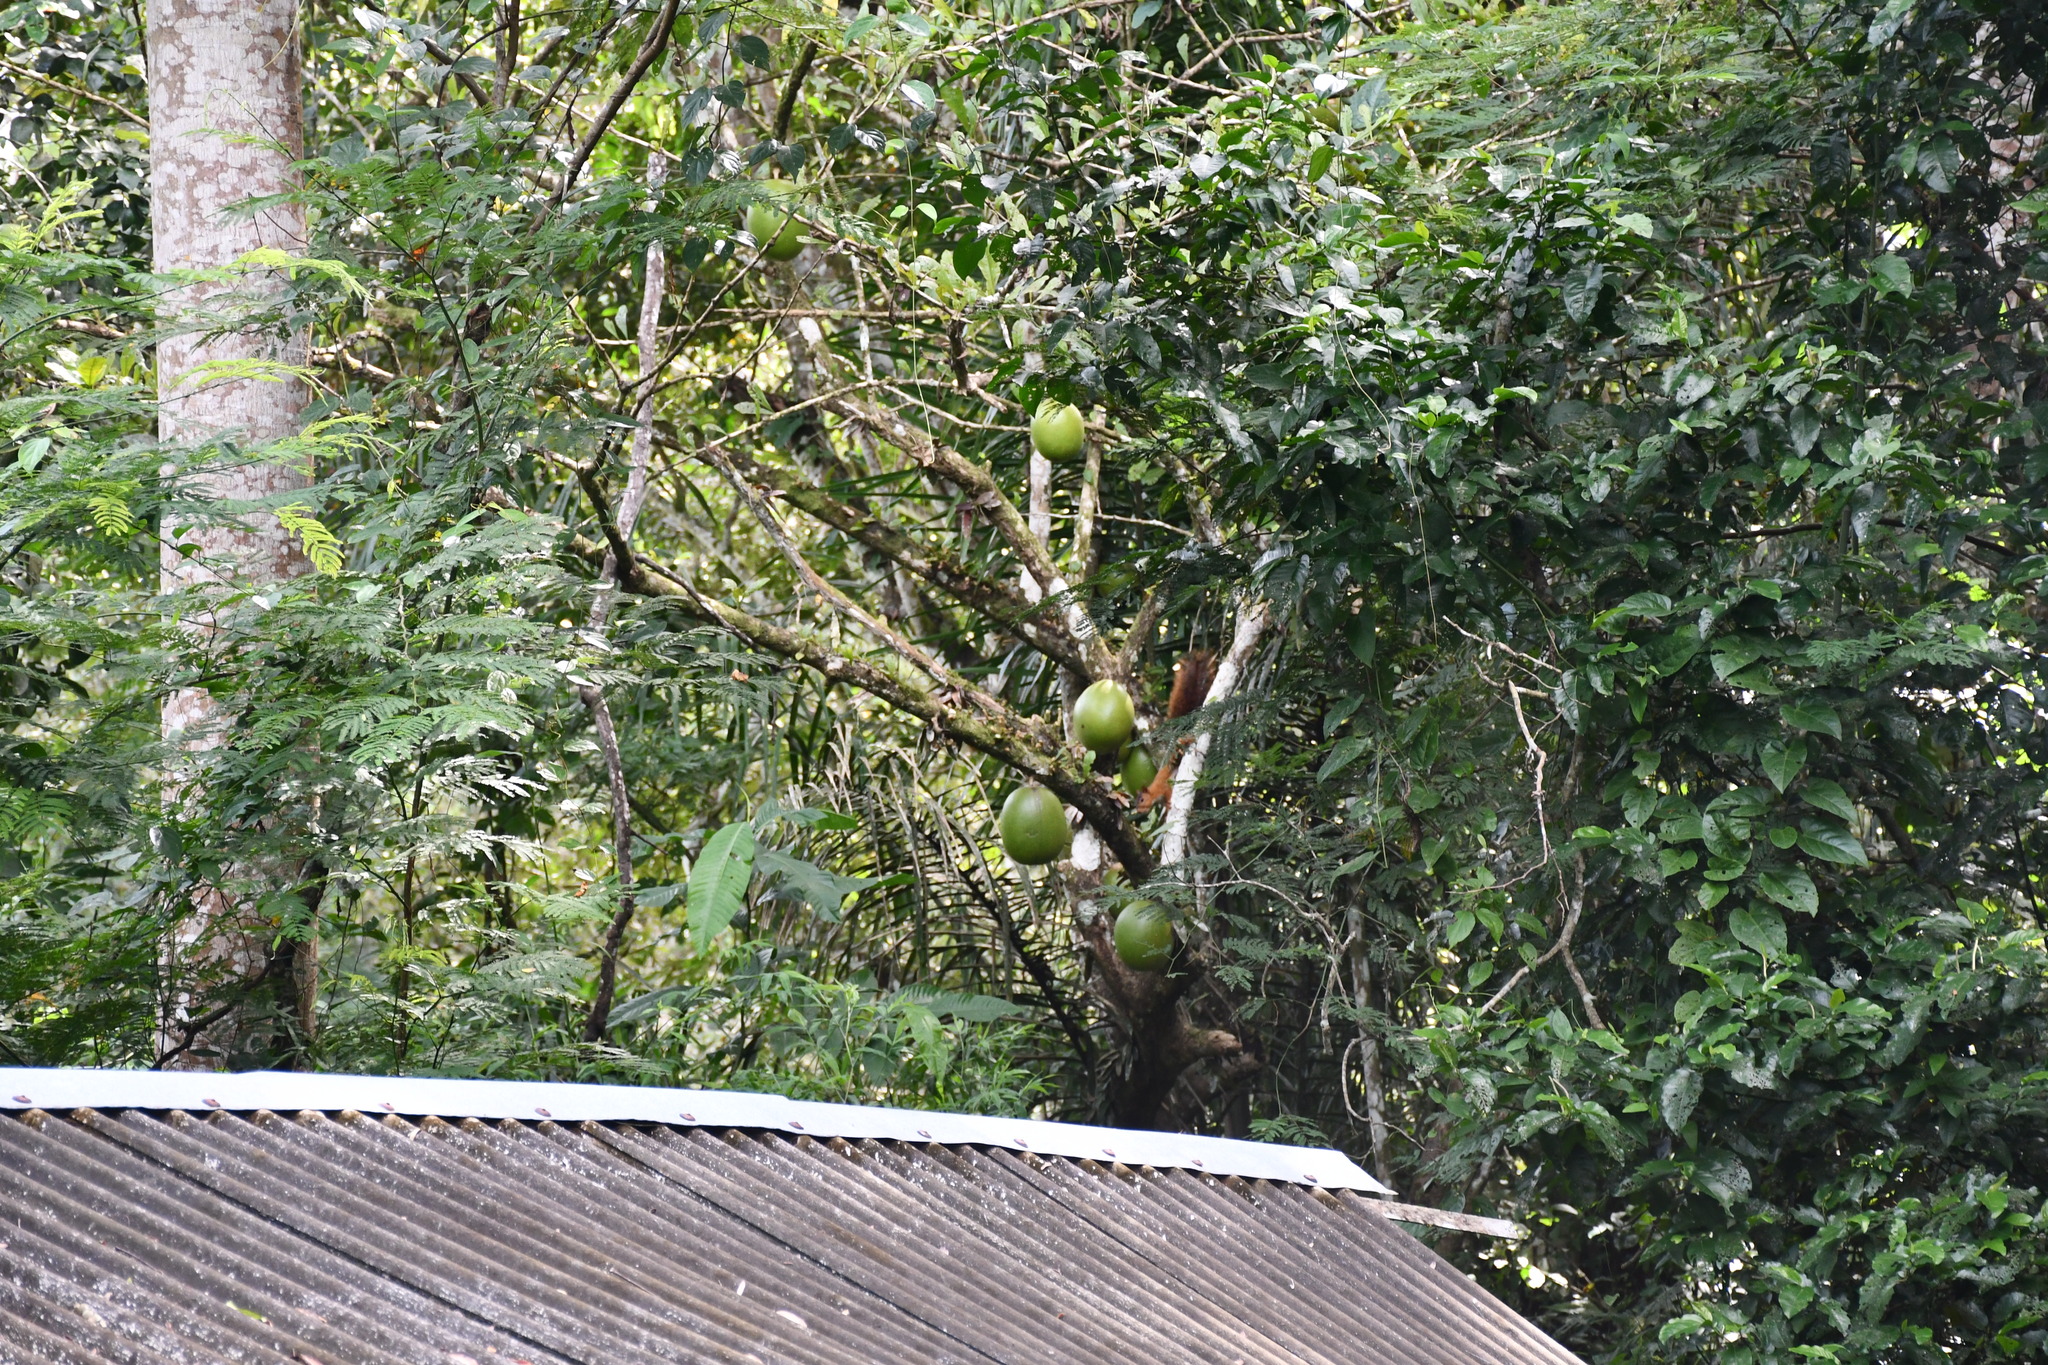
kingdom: Animalia
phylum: Chordata
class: Mammalia
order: Rodentia
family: Sciuridae
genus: Sciurus
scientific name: Sciurus spadiceus
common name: Southern amazon red squirrel
